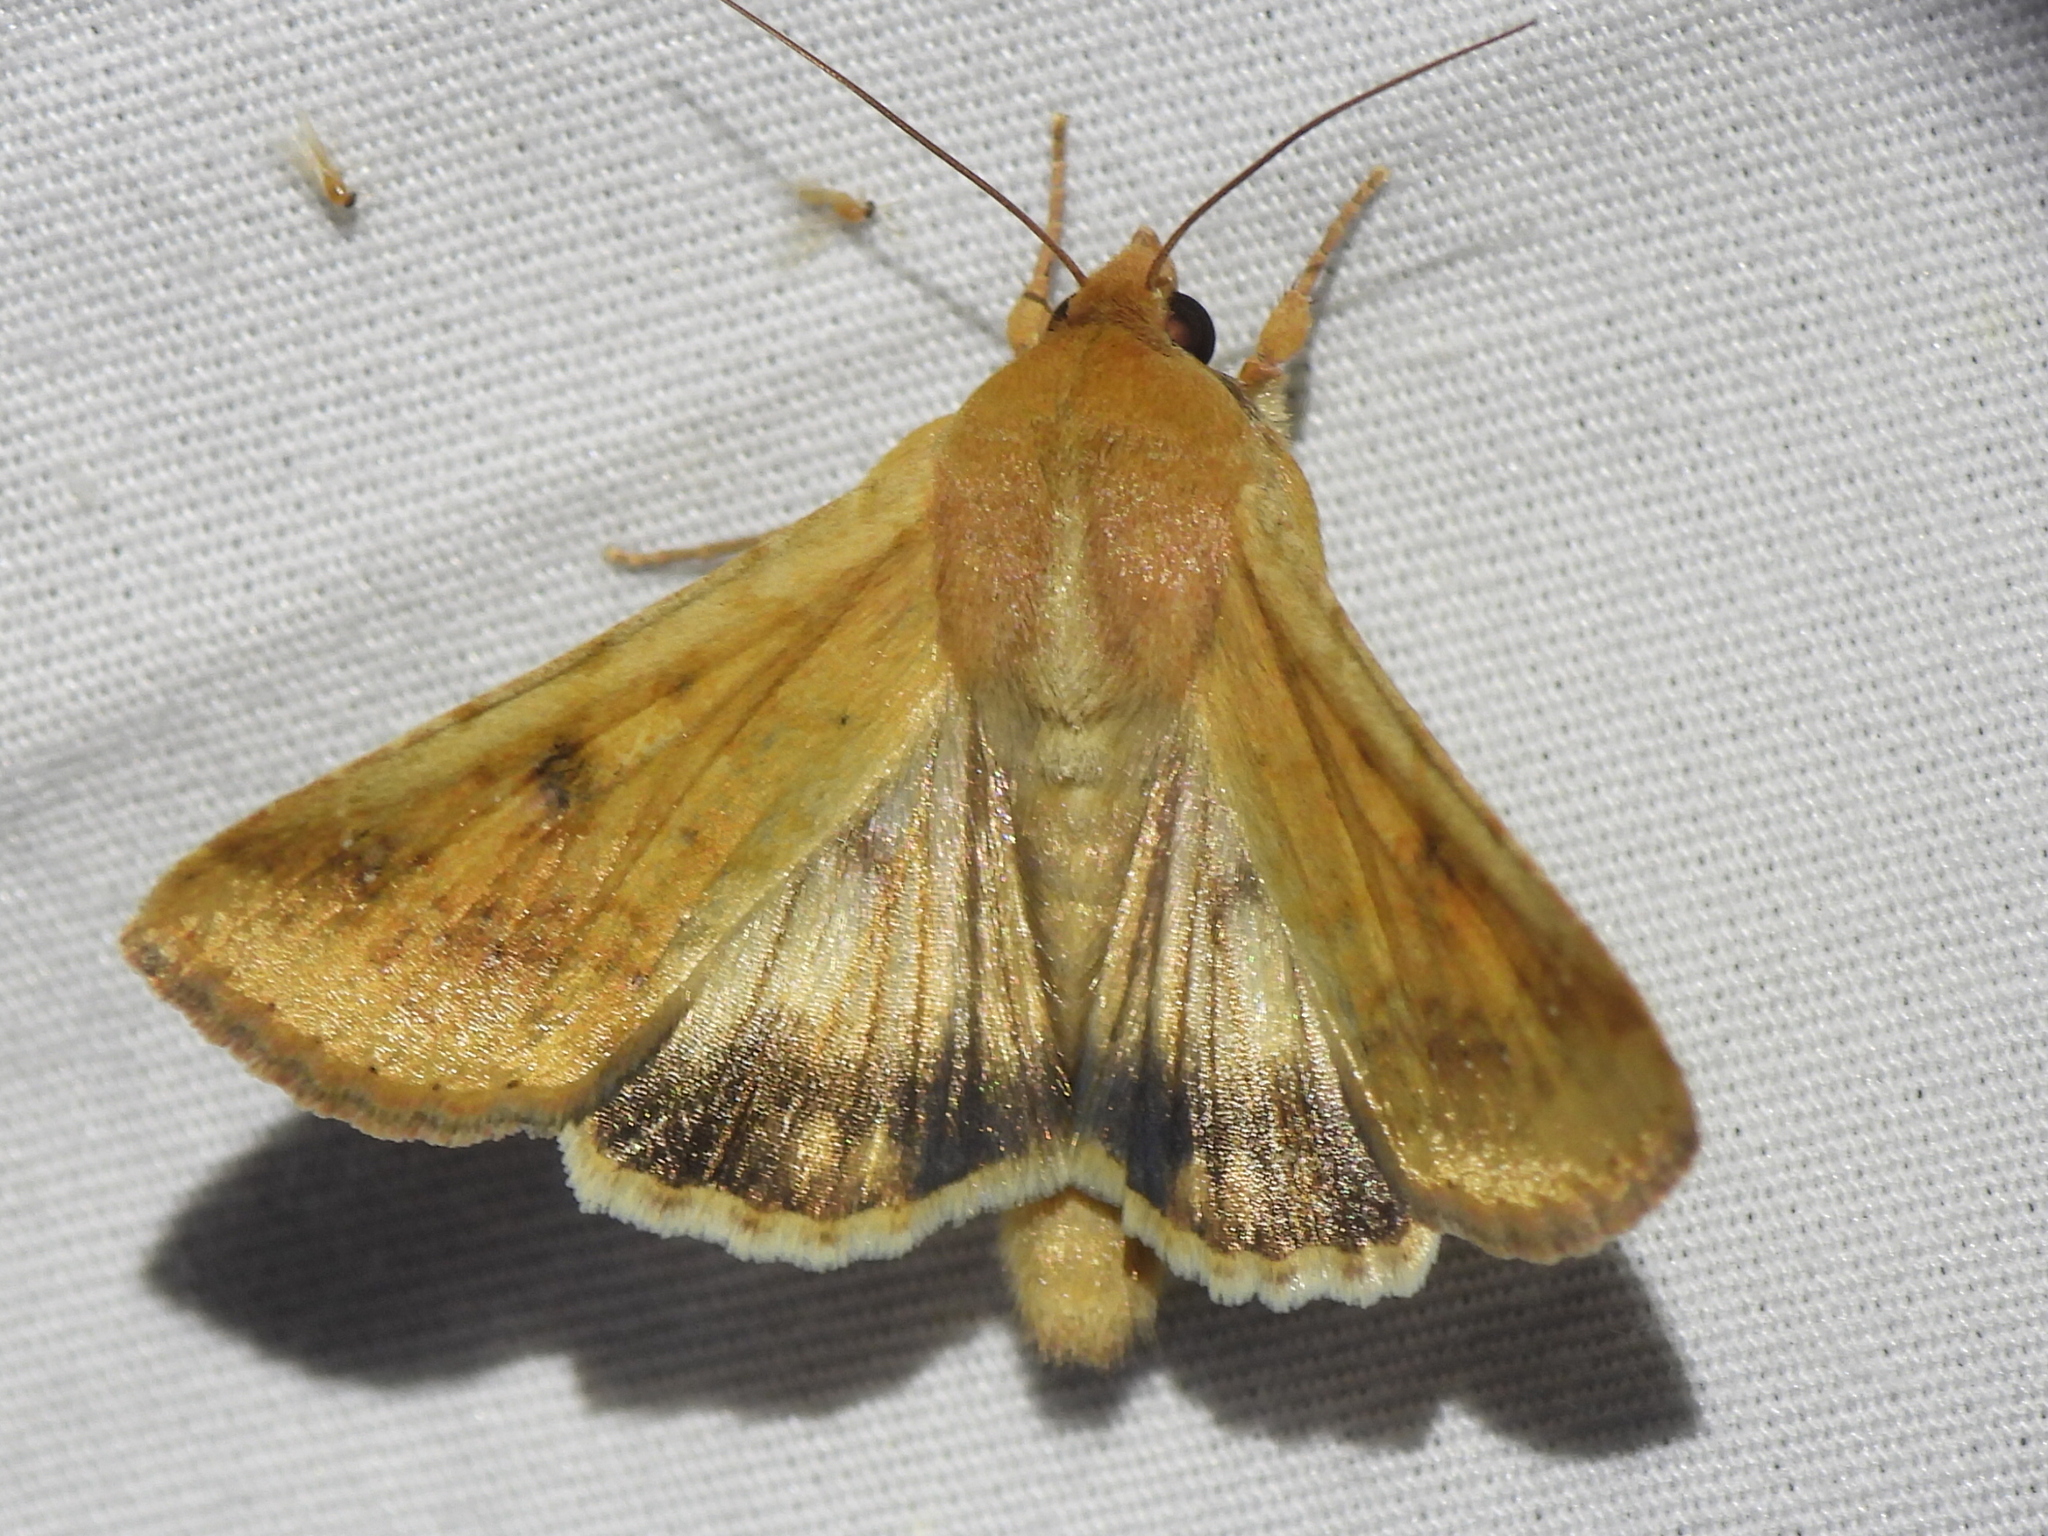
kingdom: Animalia
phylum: Arthropoda
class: Insecta
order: Lepidoptera
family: Noctuidae
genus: Helicoverpa
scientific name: Helicoverpa zea
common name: Bollworm
